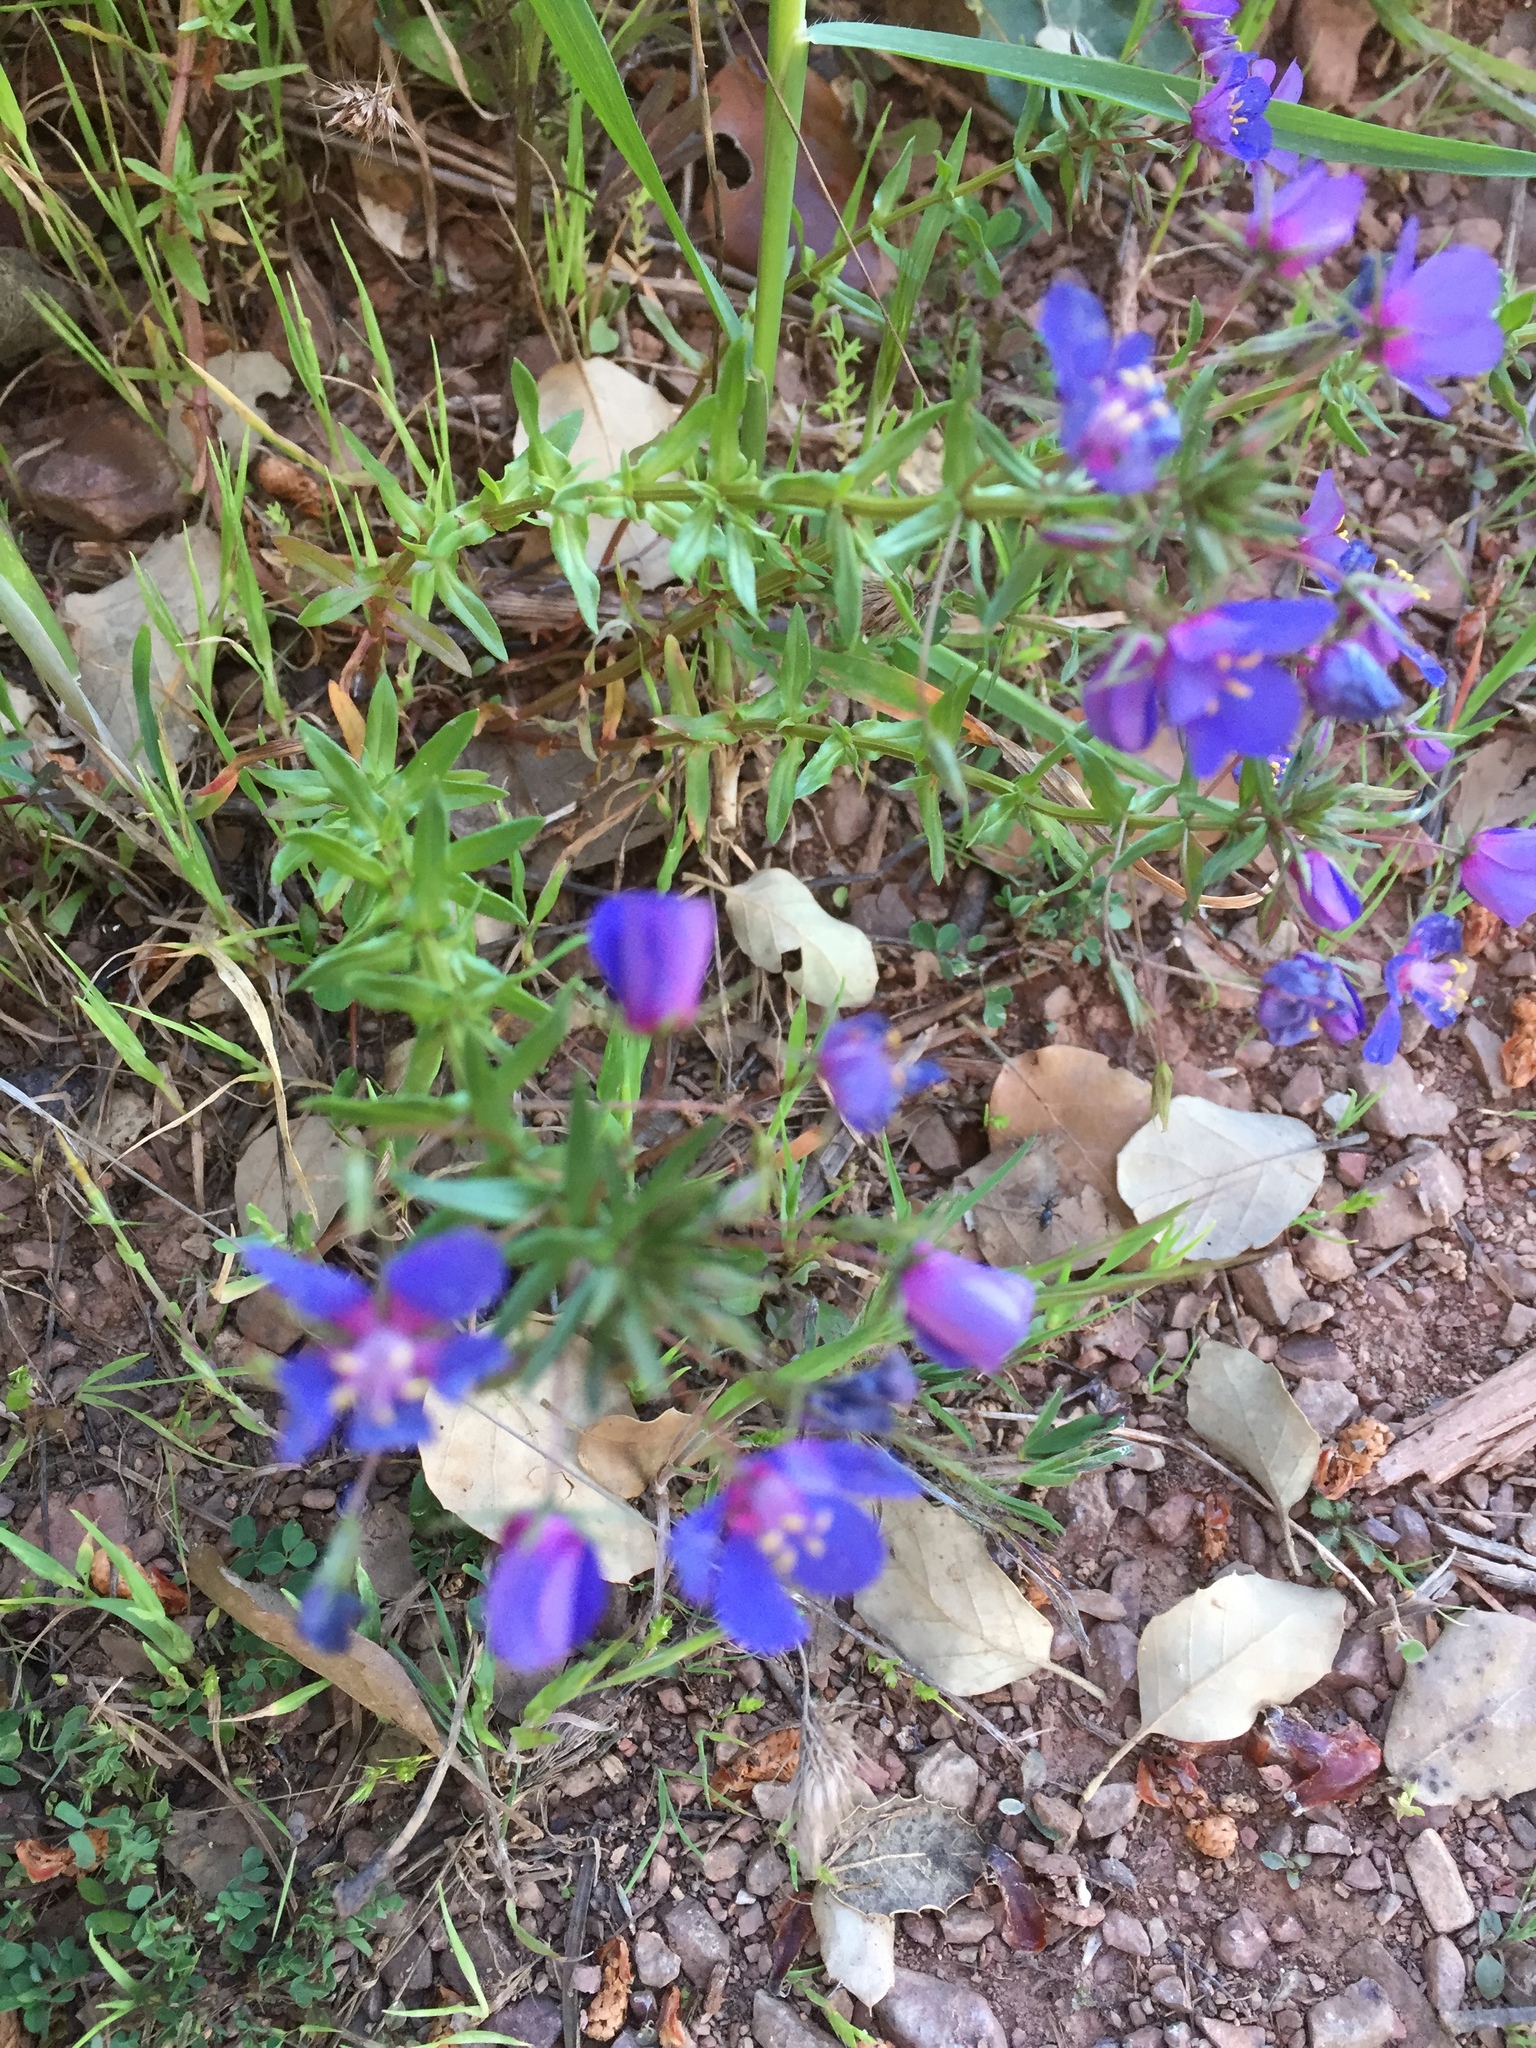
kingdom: Plantae
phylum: Tracheophyta
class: Magnoliopsida
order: Ericales
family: Primulaceae
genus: Lysimachia
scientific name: Lysimachia monelli
